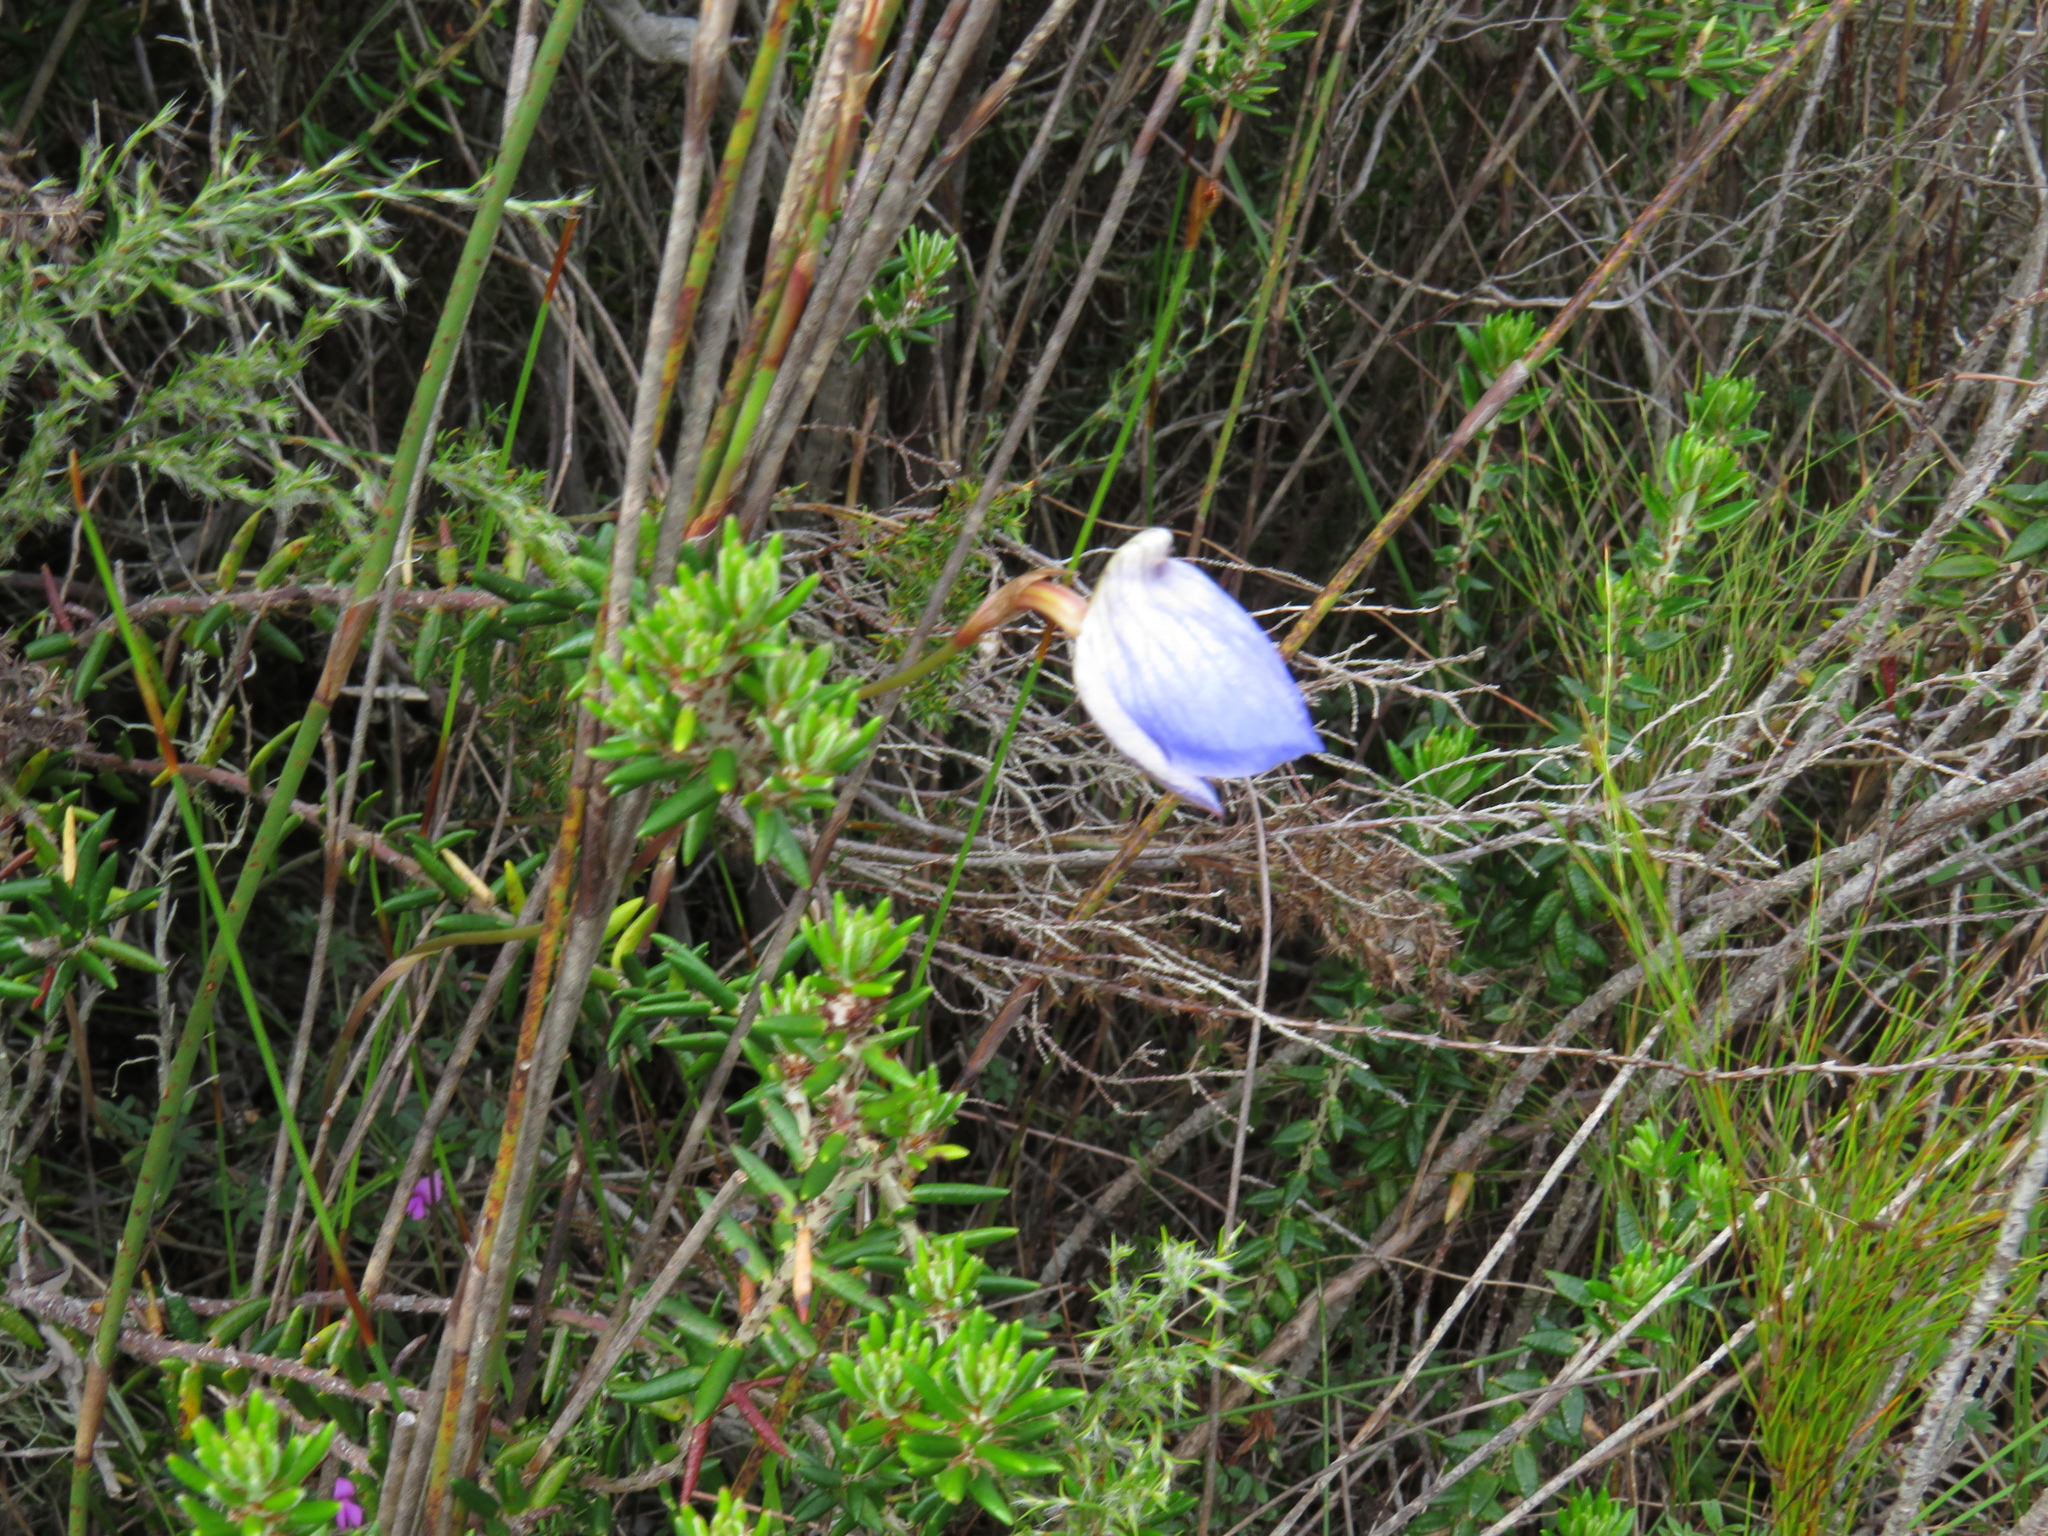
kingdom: Plantae
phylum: Tracheophyta
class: Liliopsida
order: Asparagales
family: Orchidaceae
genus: Disa
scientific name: Disa purpurascens
